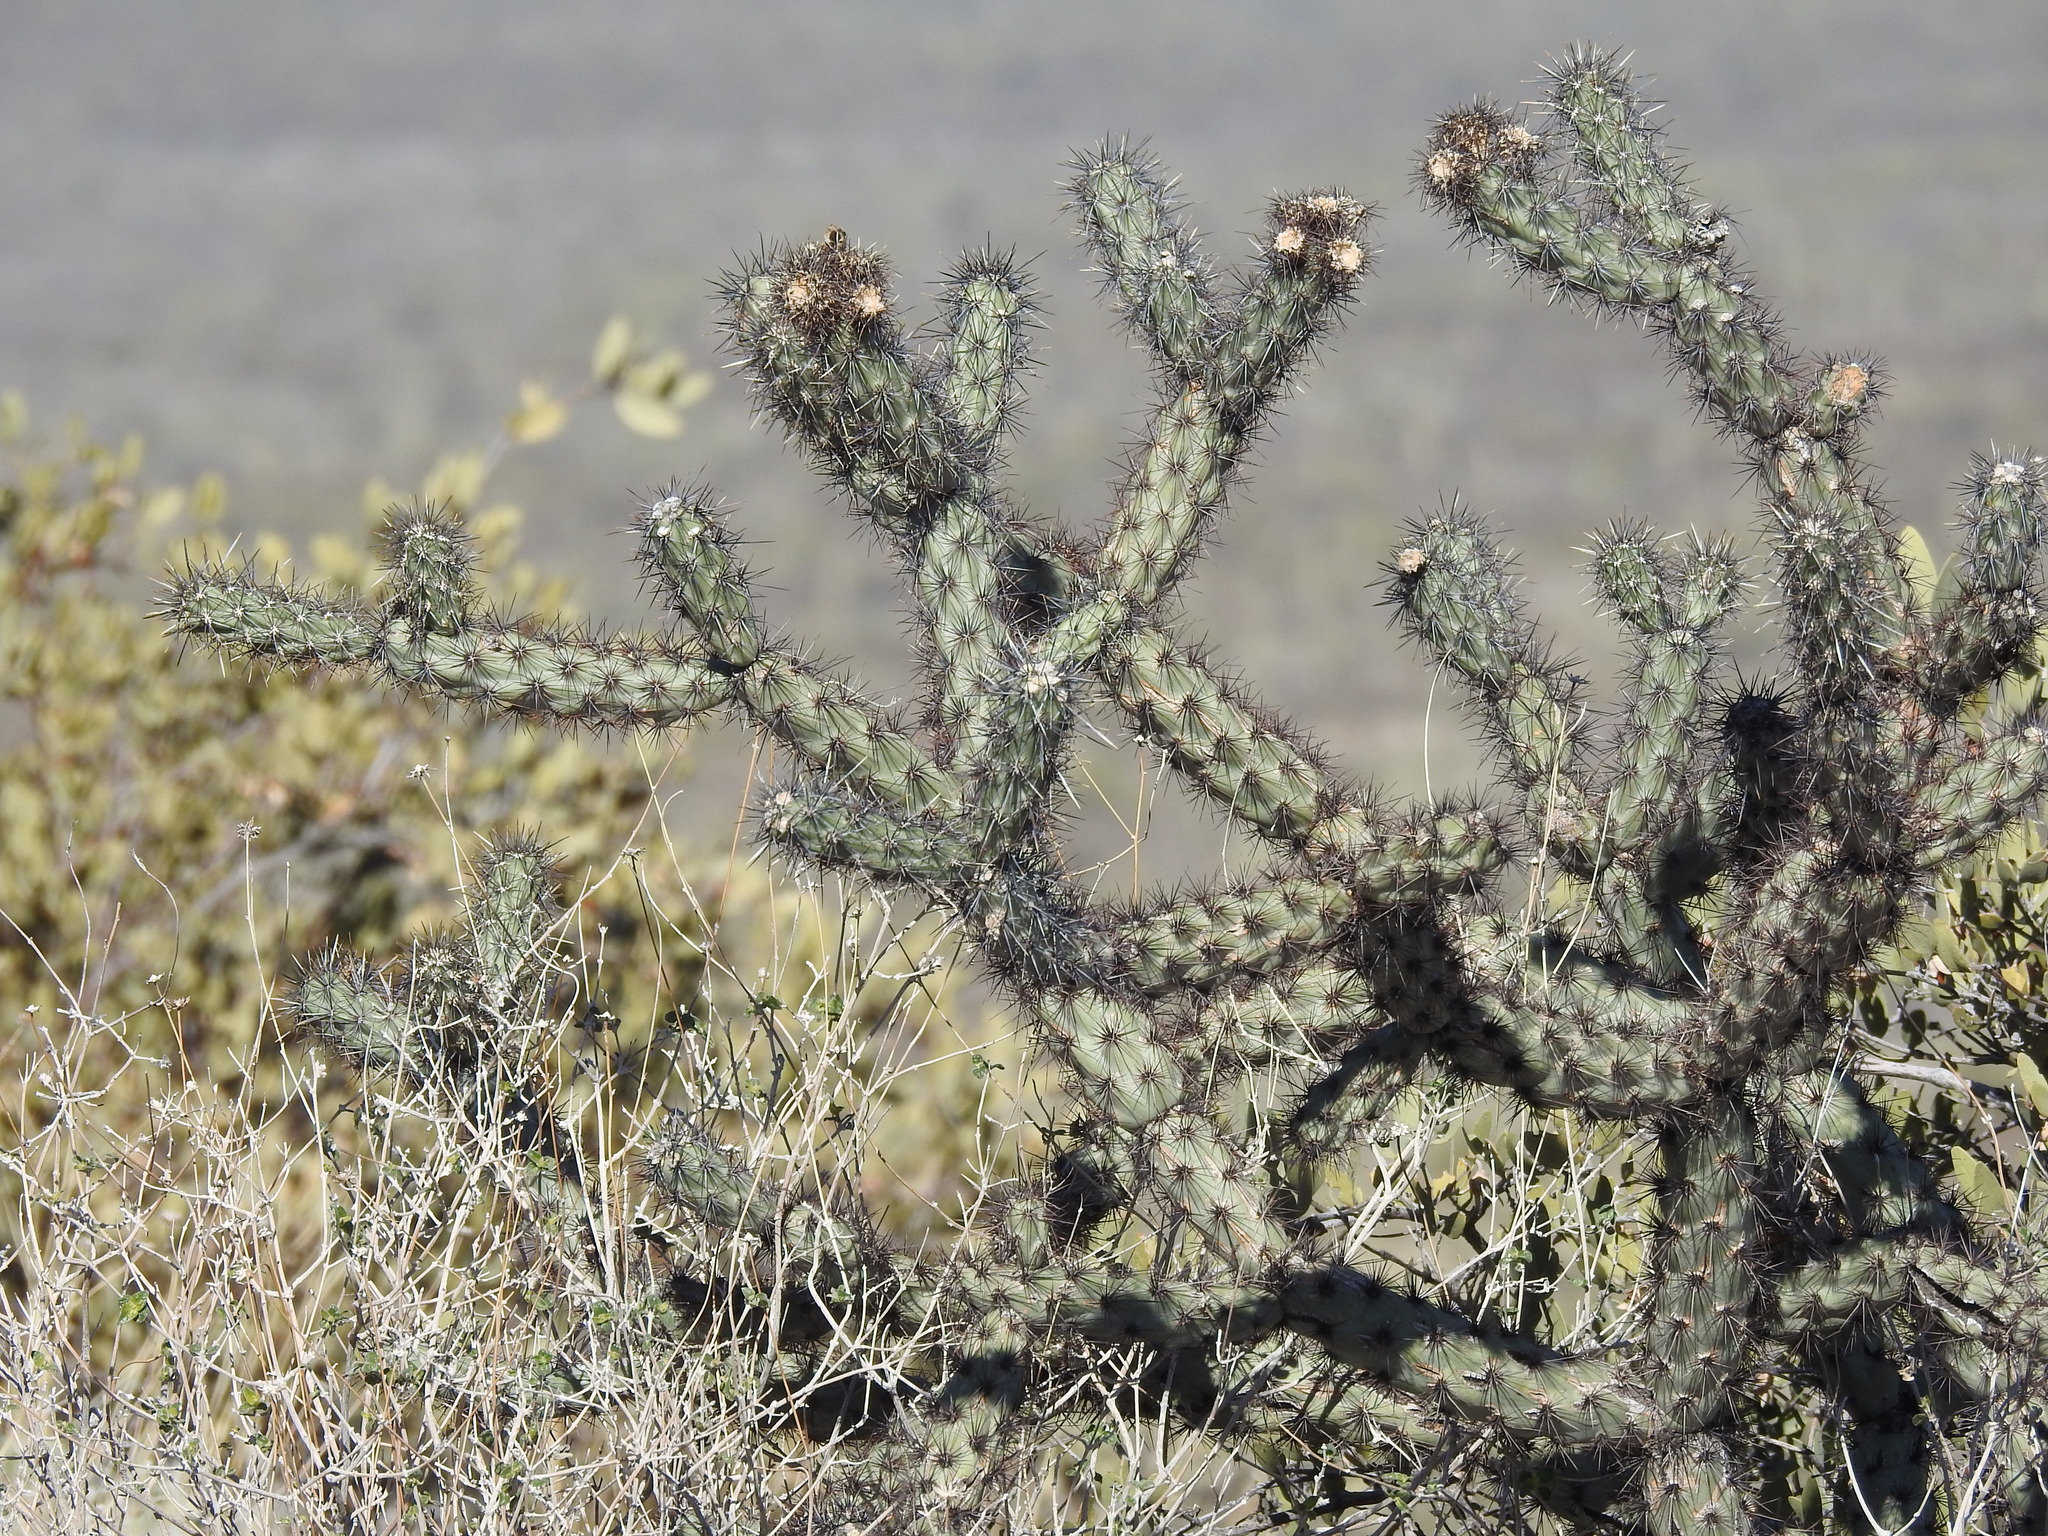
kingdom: Plantae
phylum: Tracheophyta
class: Magnoliopsida
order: Caryophyllales
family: Cactaceae
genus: Cylindropuntia
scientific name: Cylindropuntia acanthocarpa
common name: Buckhorn cholla
